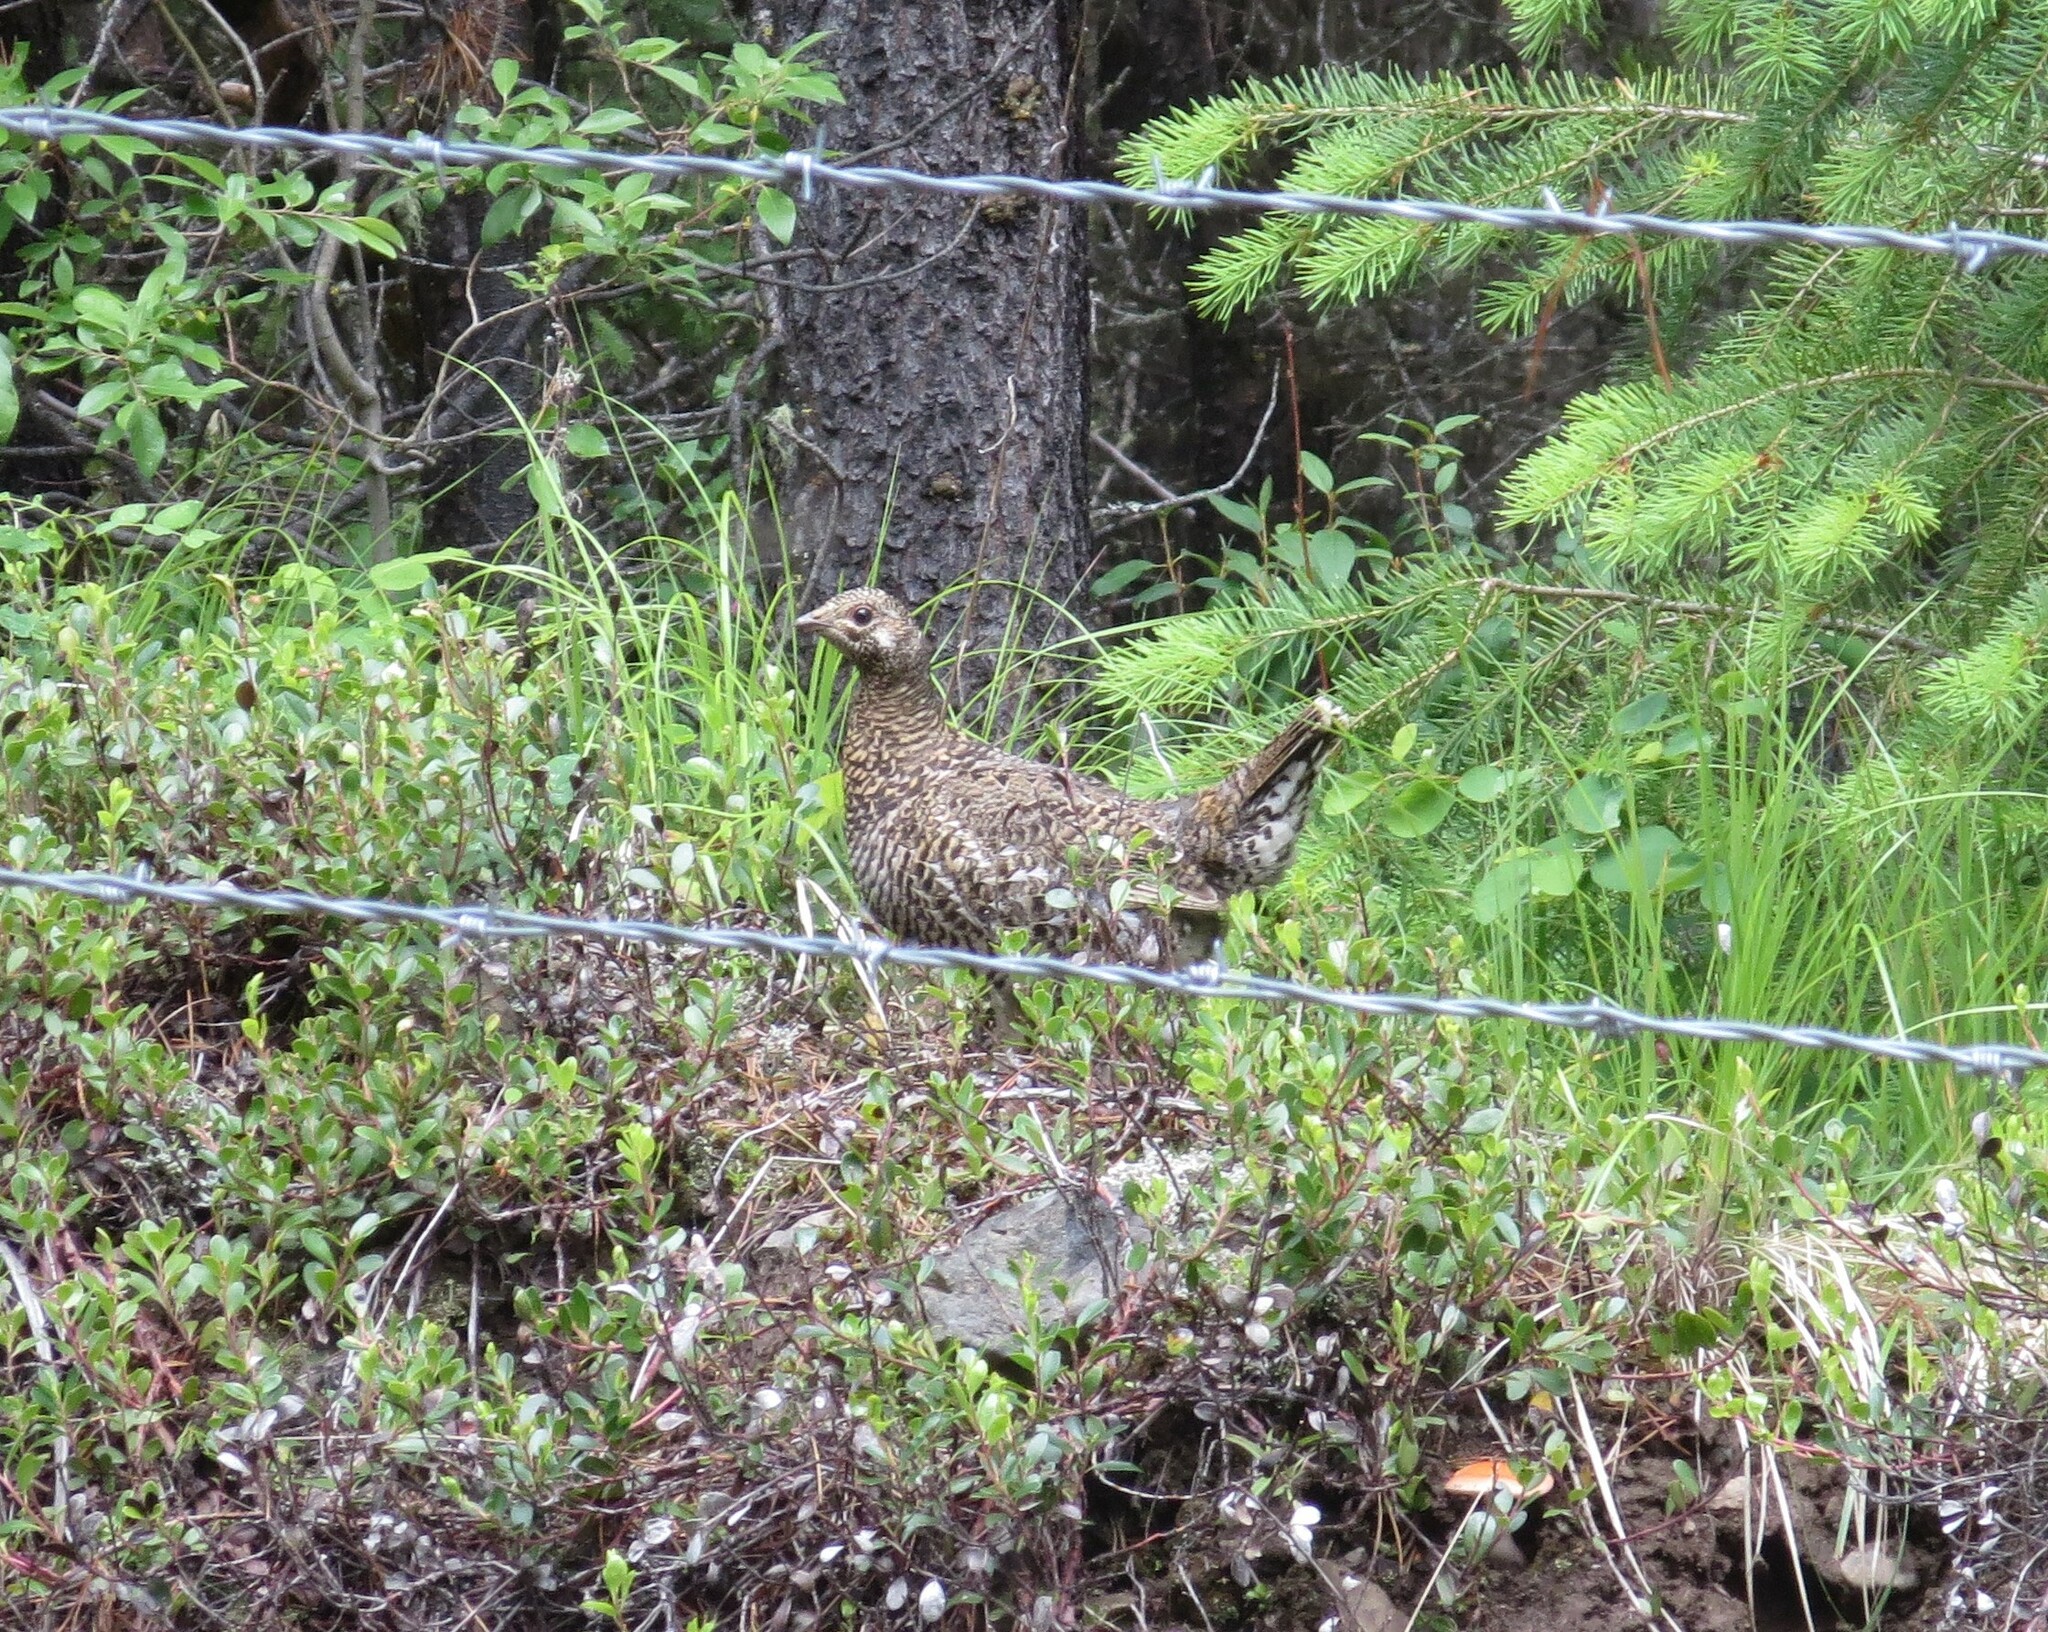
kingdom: Animalia
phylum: Chordata
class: Aves
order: Galliformes
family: Phasianidae
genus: Canachites
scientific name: Canachites canadensis
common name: Spruce grouse
